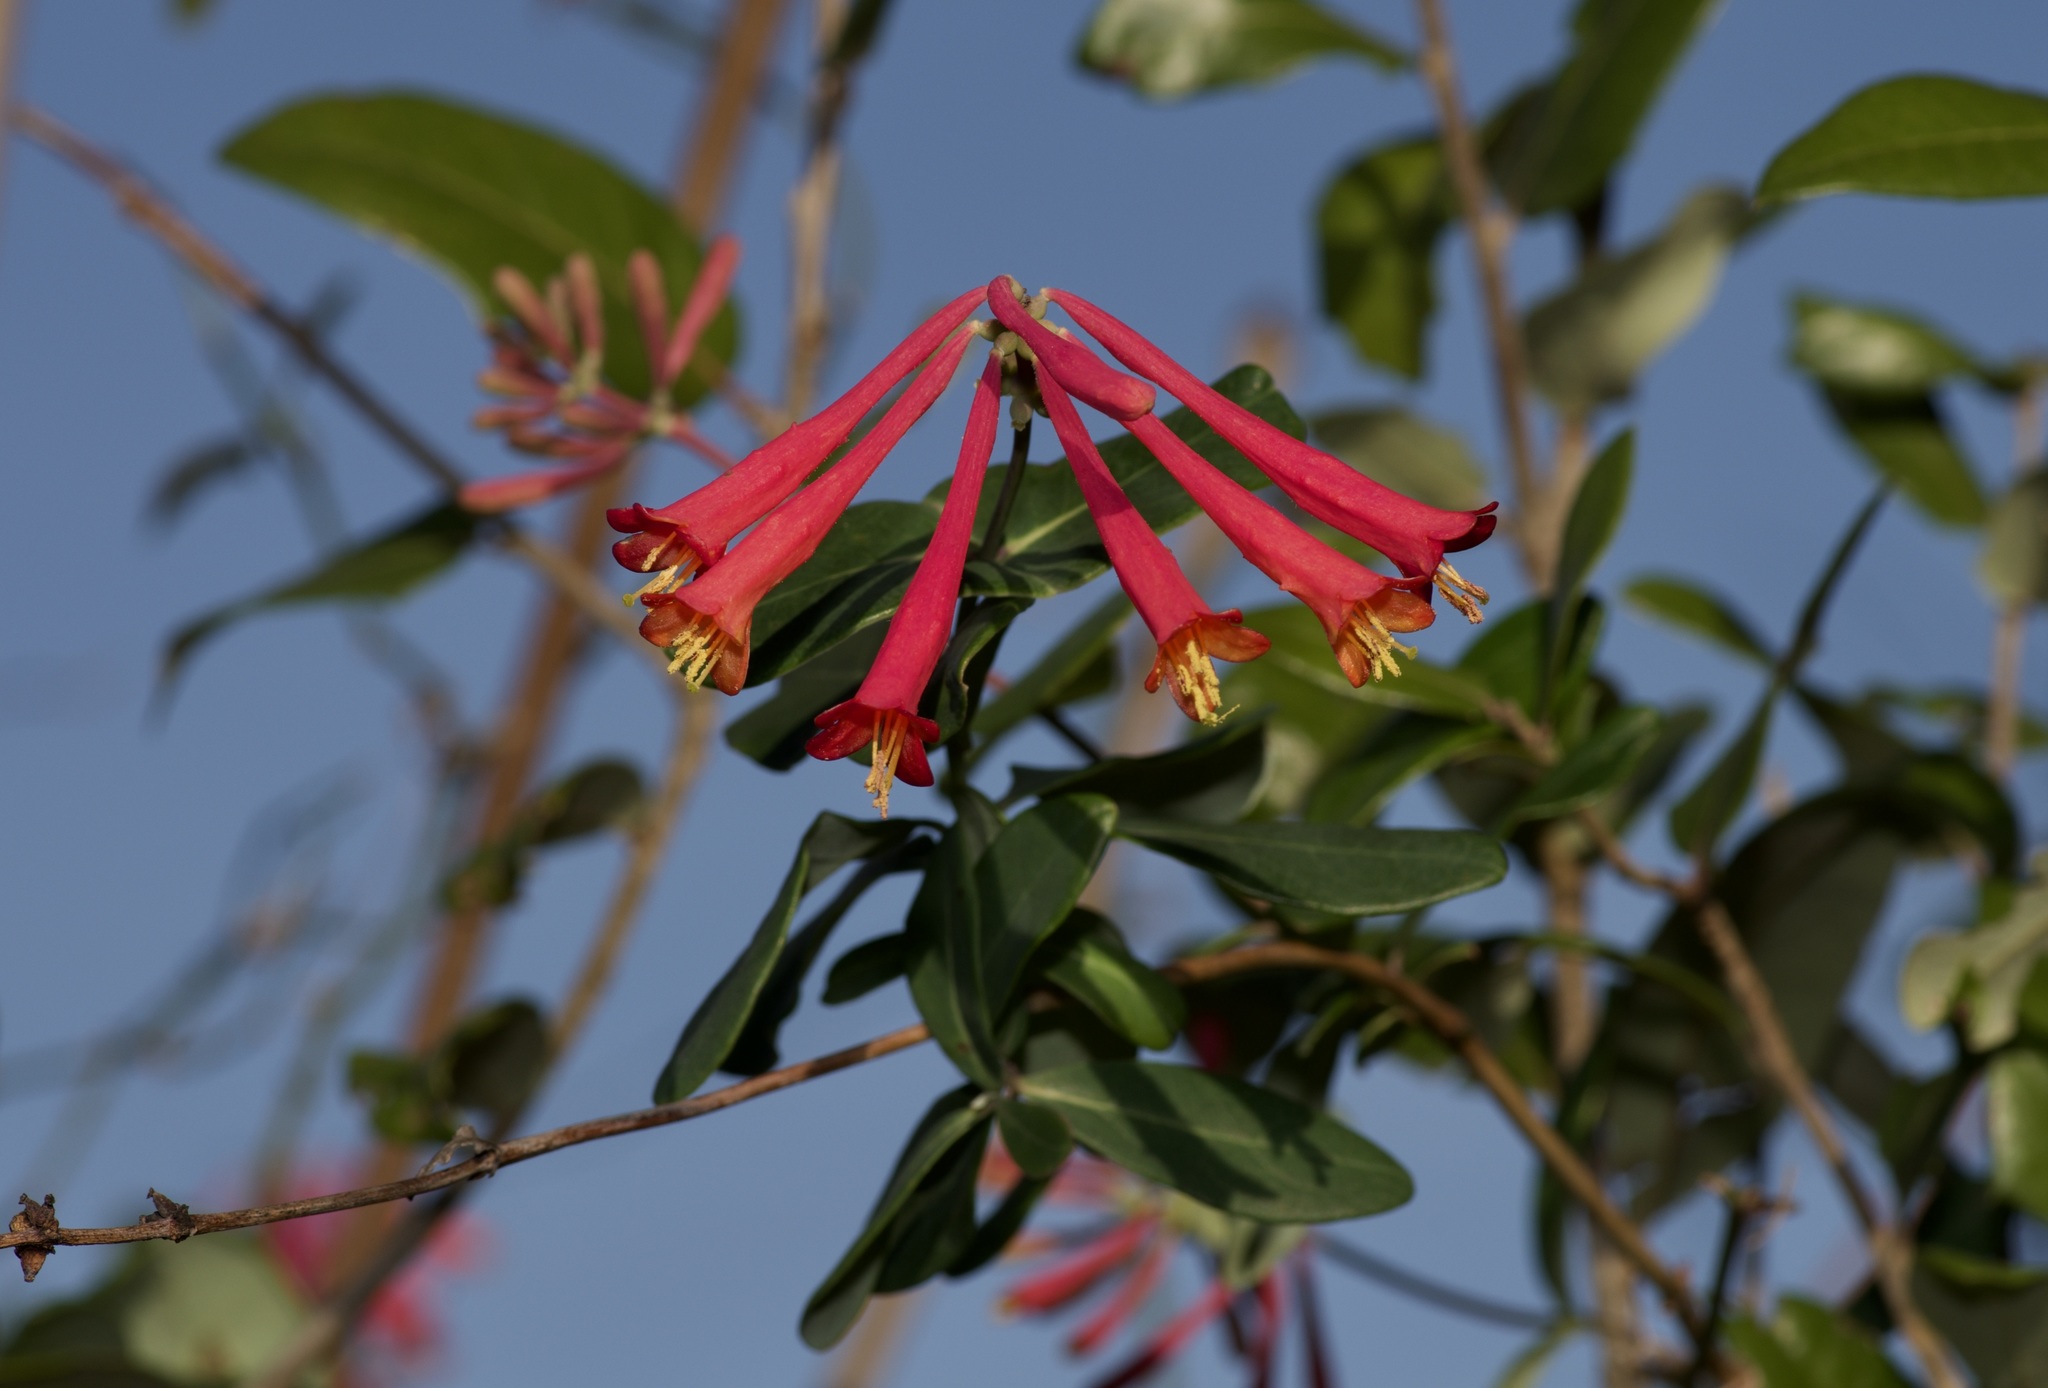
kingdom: Plantae
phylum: Tracheophyta
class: Magnoliopsida
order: Dipsacales
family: Caprifoliaceae
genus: Lonicera
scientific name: Lonicera sempervirens
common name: Coral honeysuckle
